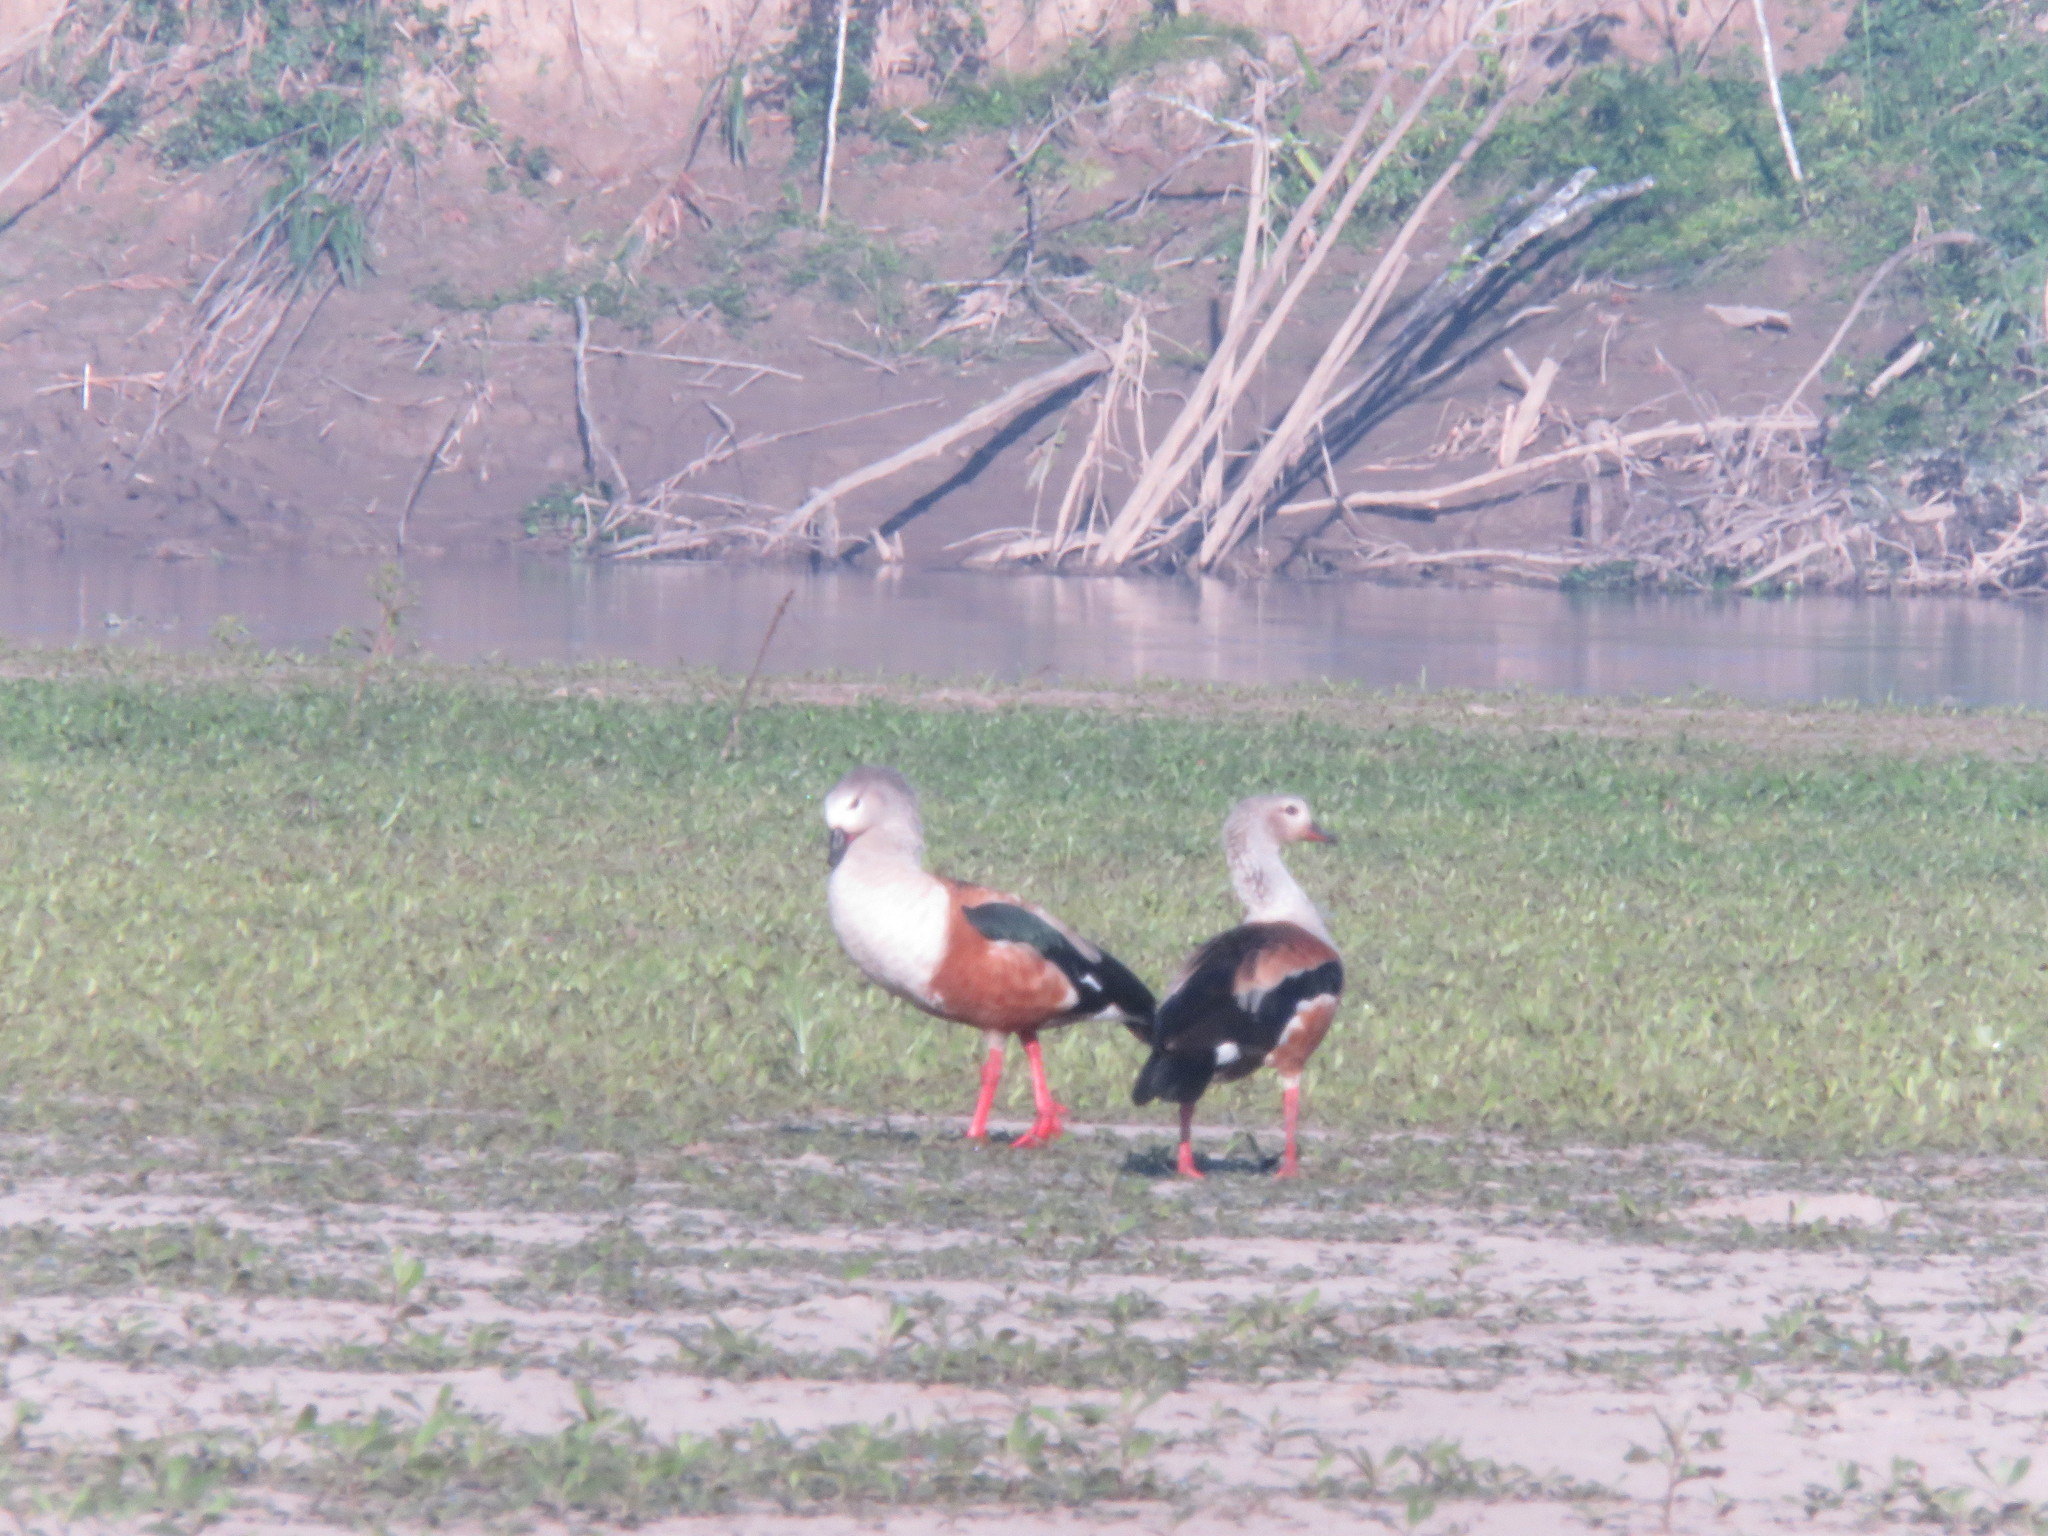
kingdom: Animalia
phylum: Chordata
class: Aves
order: Anseriformes
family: Anatidae
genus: Oressochen
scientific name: Oressochen jubatus
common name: Orinoco goose
